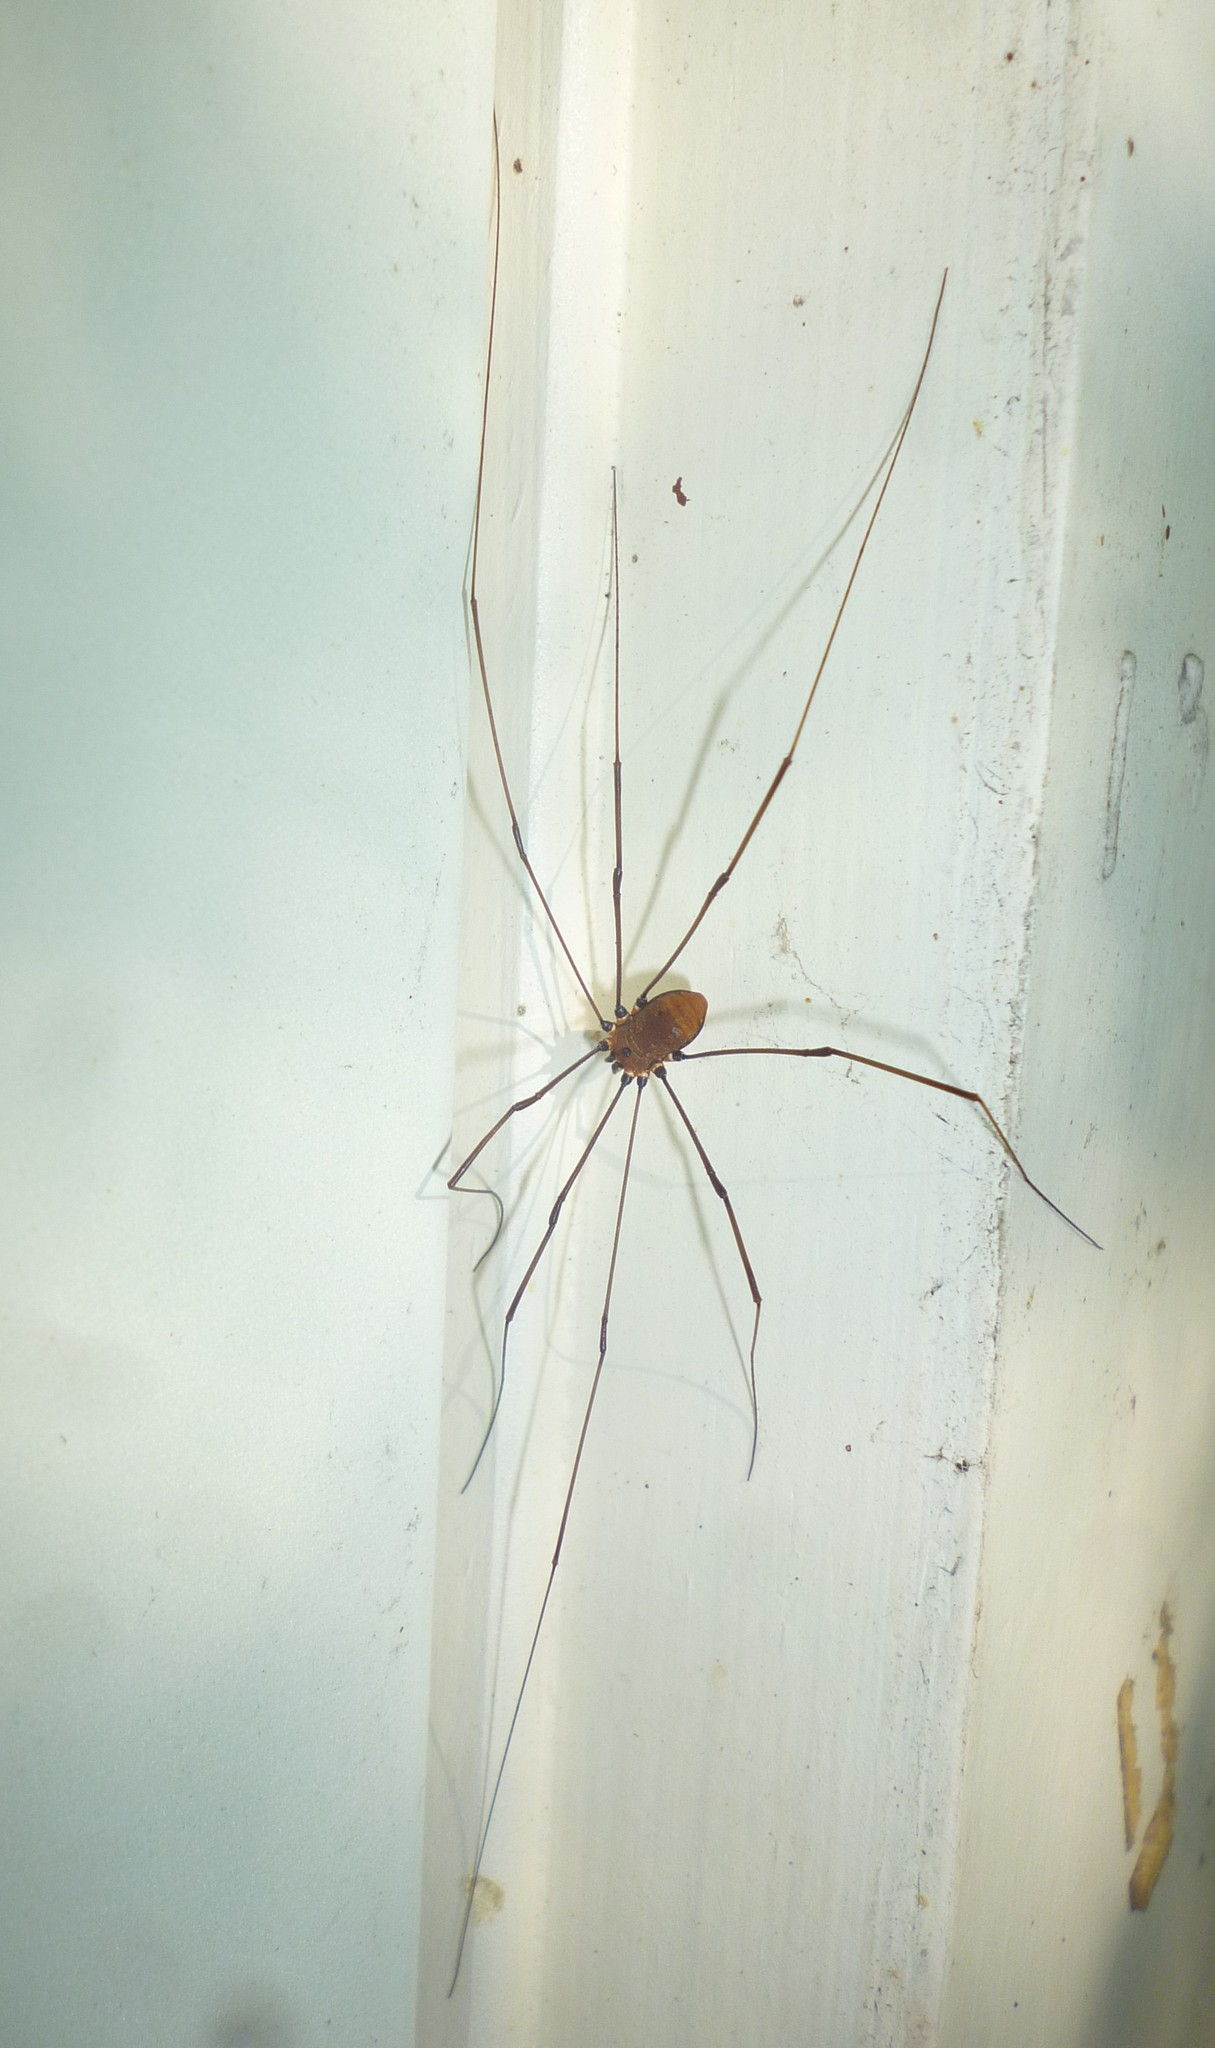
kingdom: Animalia
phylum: Arthropoda
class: Arachnida
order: Opiliones
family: Sclerosomatidae
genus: Leiobunum
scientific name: Leiobunum nigropalpi
